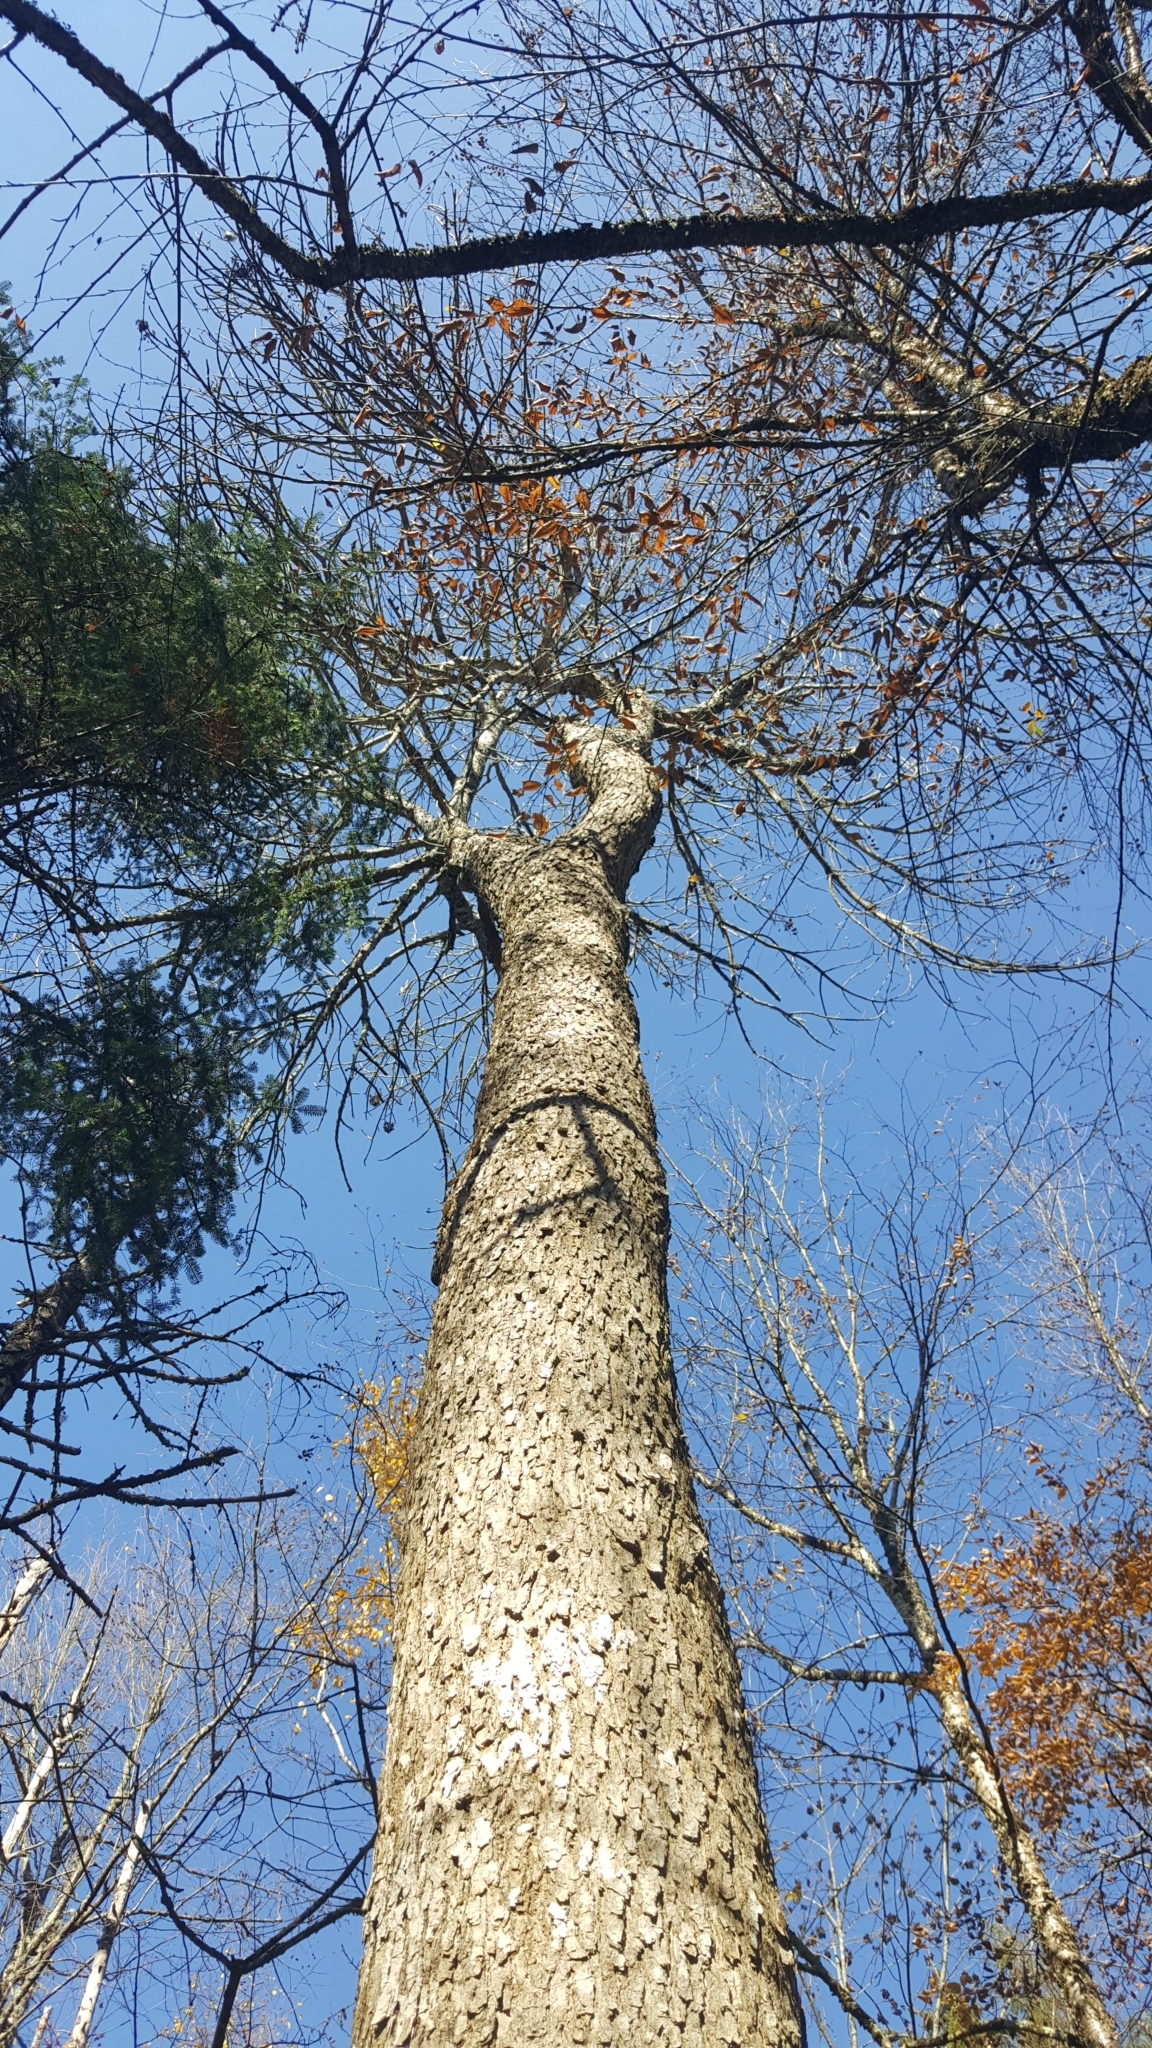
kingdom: Plantae
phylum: Tracheophyta
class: Magnoliopsida
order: Lamiales
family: Oleaceae
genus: Fraxinus
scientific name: Fraxinus nigra
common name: Black ash
